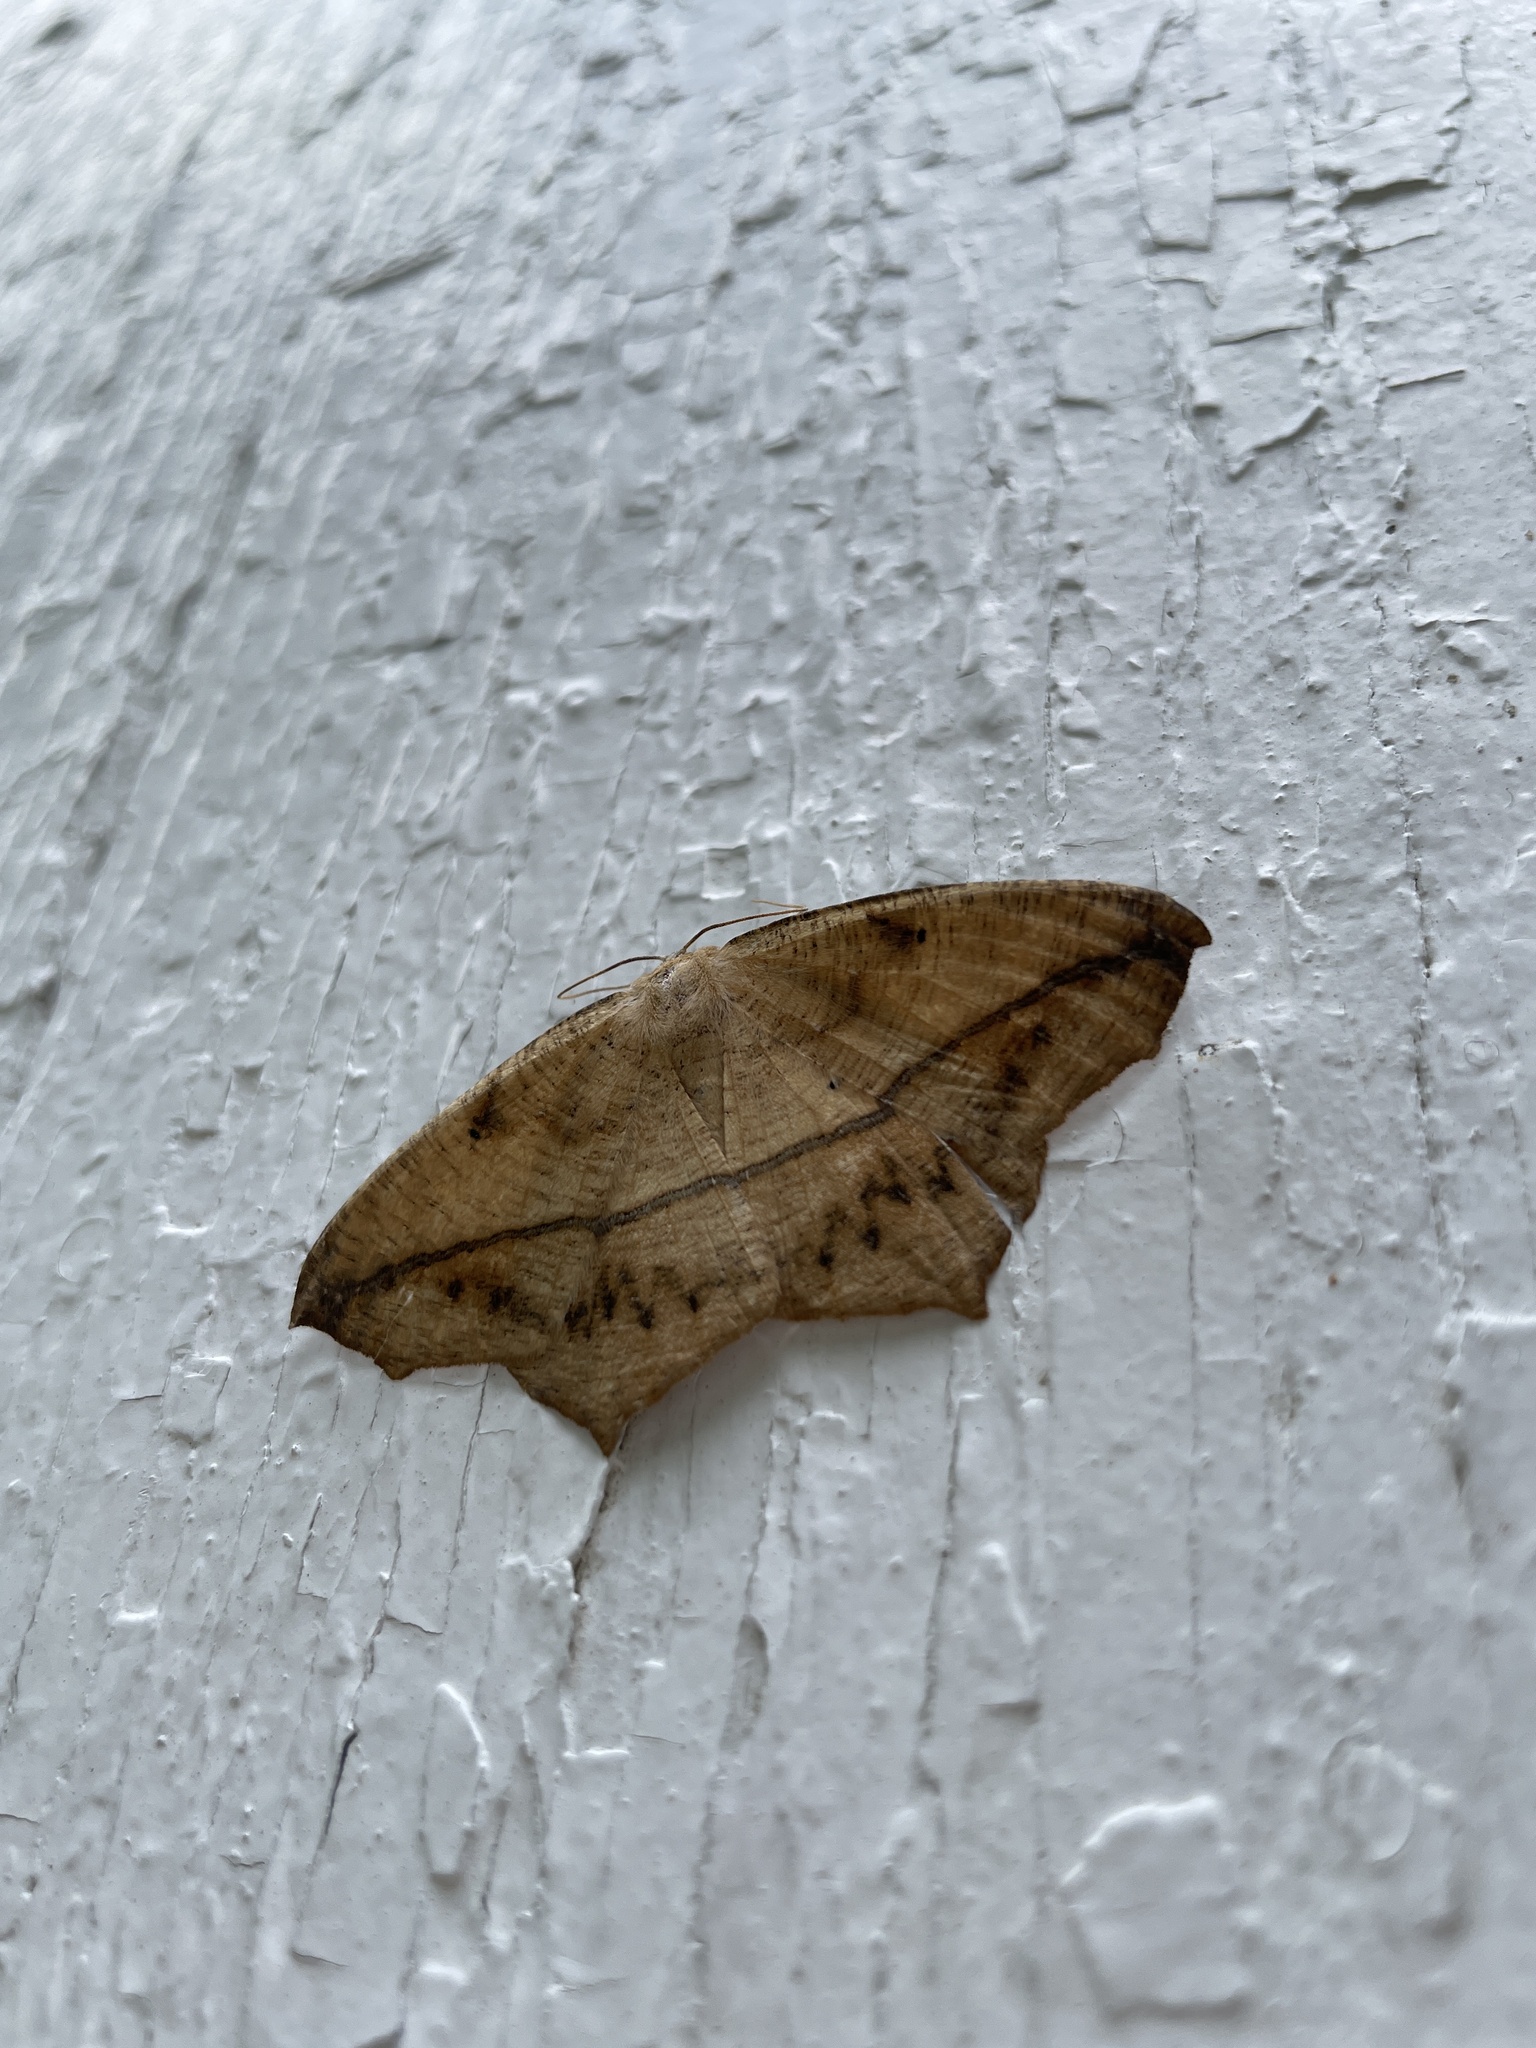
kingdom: Animalia
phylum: Arthropoda
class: Insecta
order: Lepidoptera
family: Geometridae
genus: Prochoerodes
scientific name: Prochoerodes lineola
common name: Large maple spanworm
